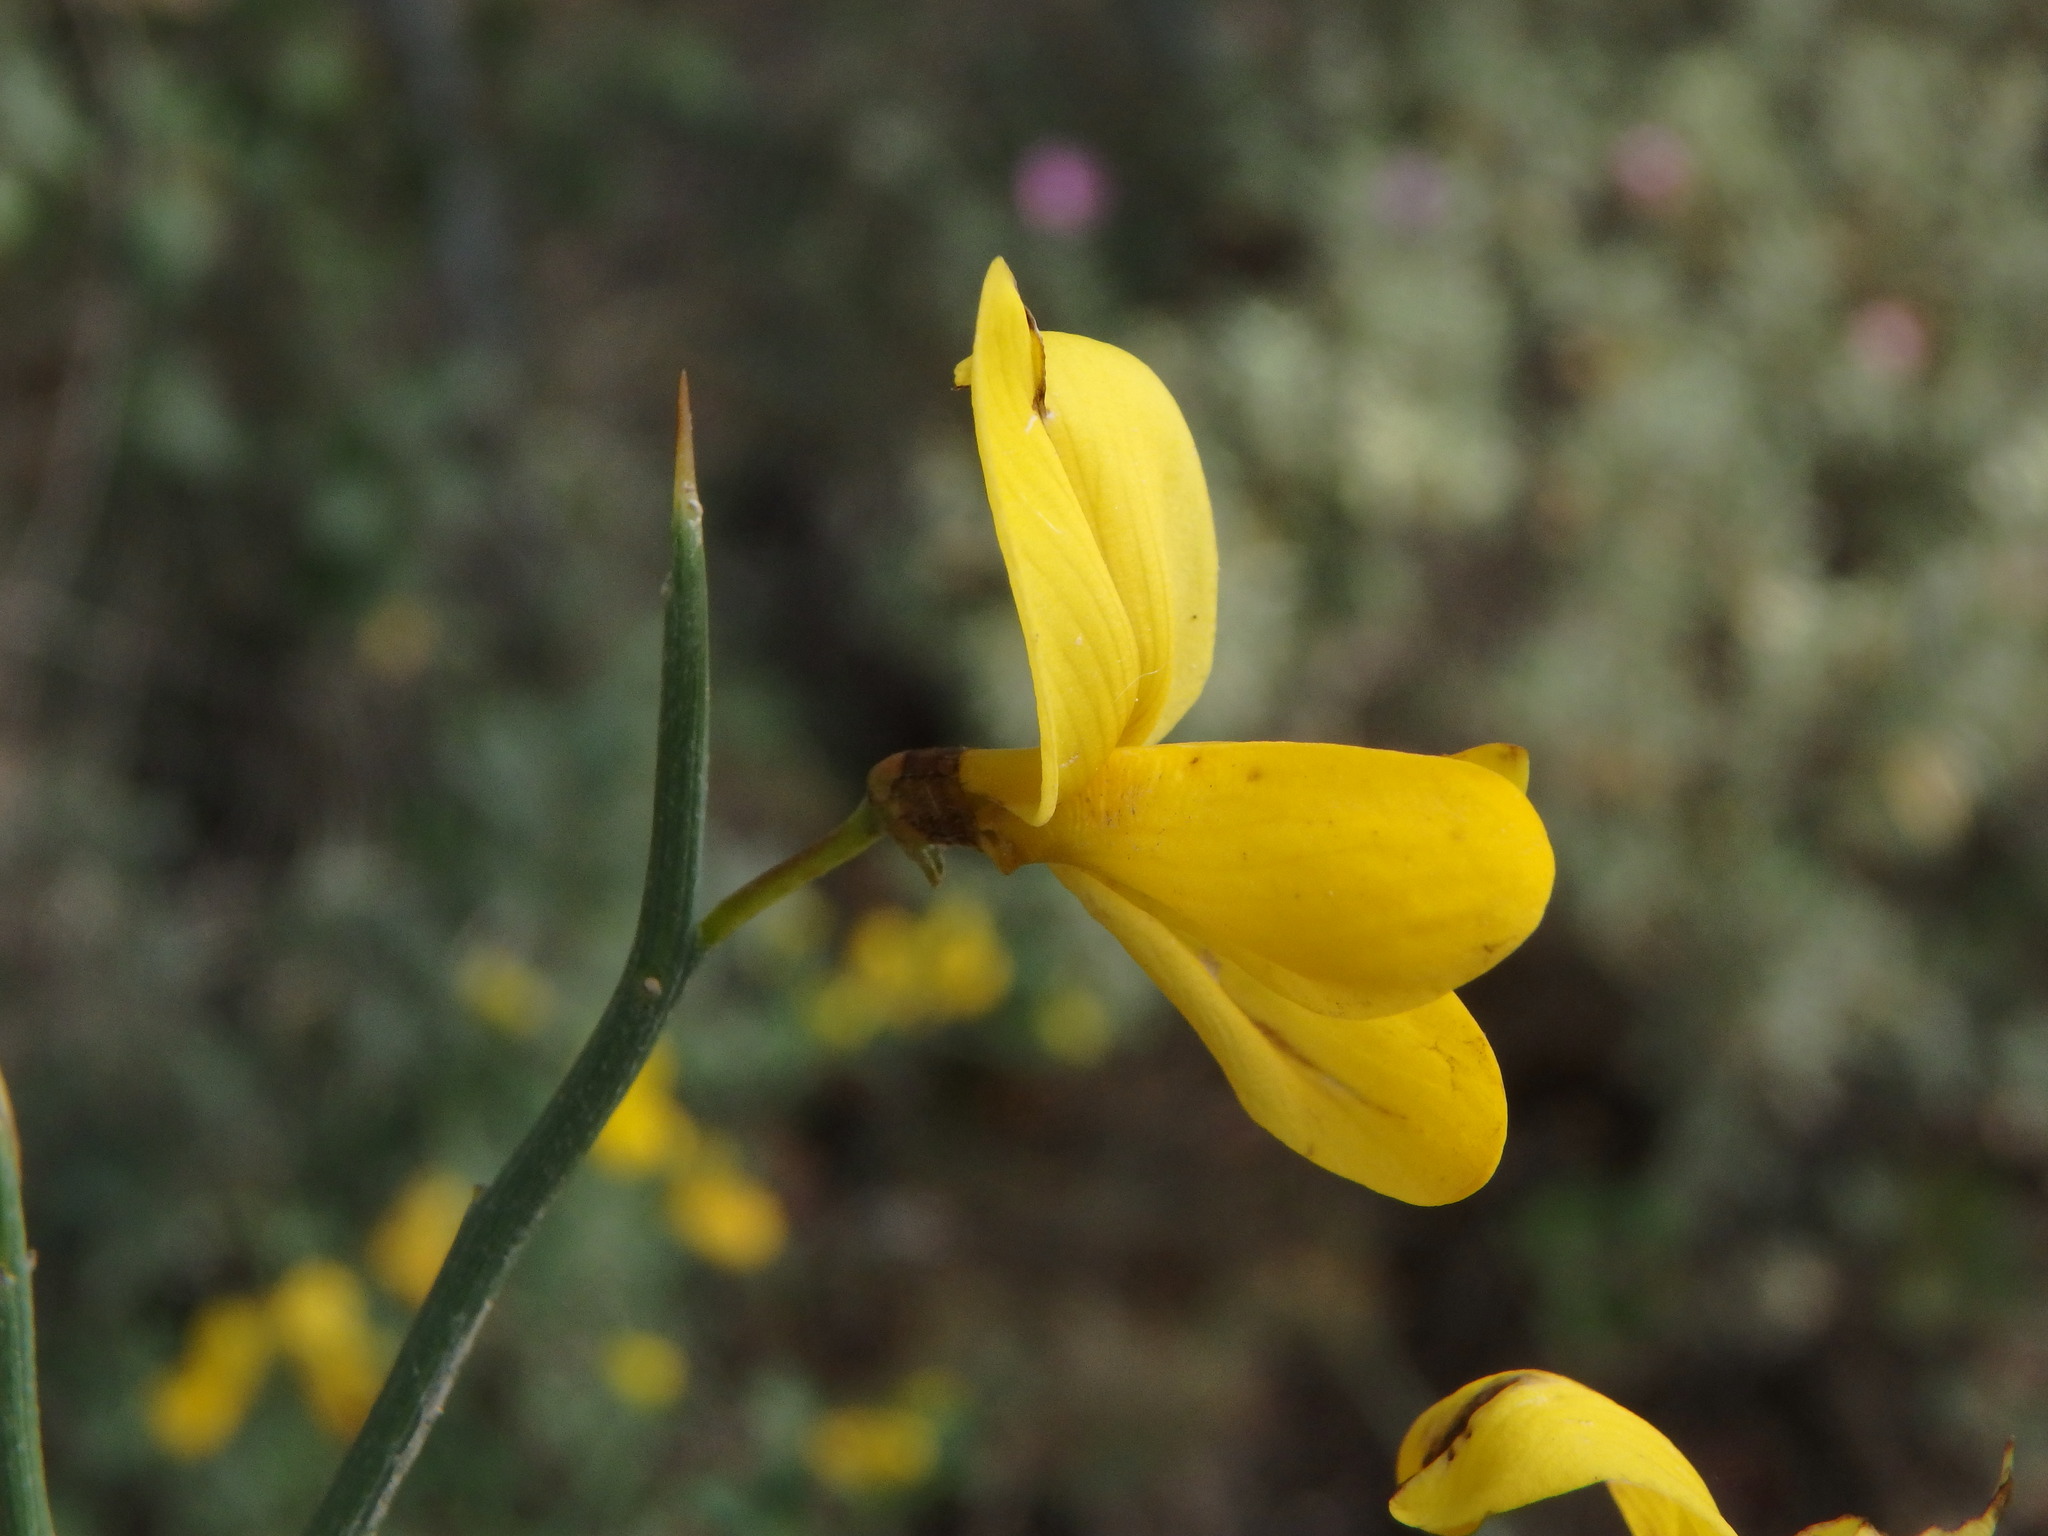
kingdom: Plantae
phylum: Tracheophyta
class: Magnoliopsida
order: Fabales
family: Fabaceae
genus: Calicotome
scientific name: Calicotome spinosa
